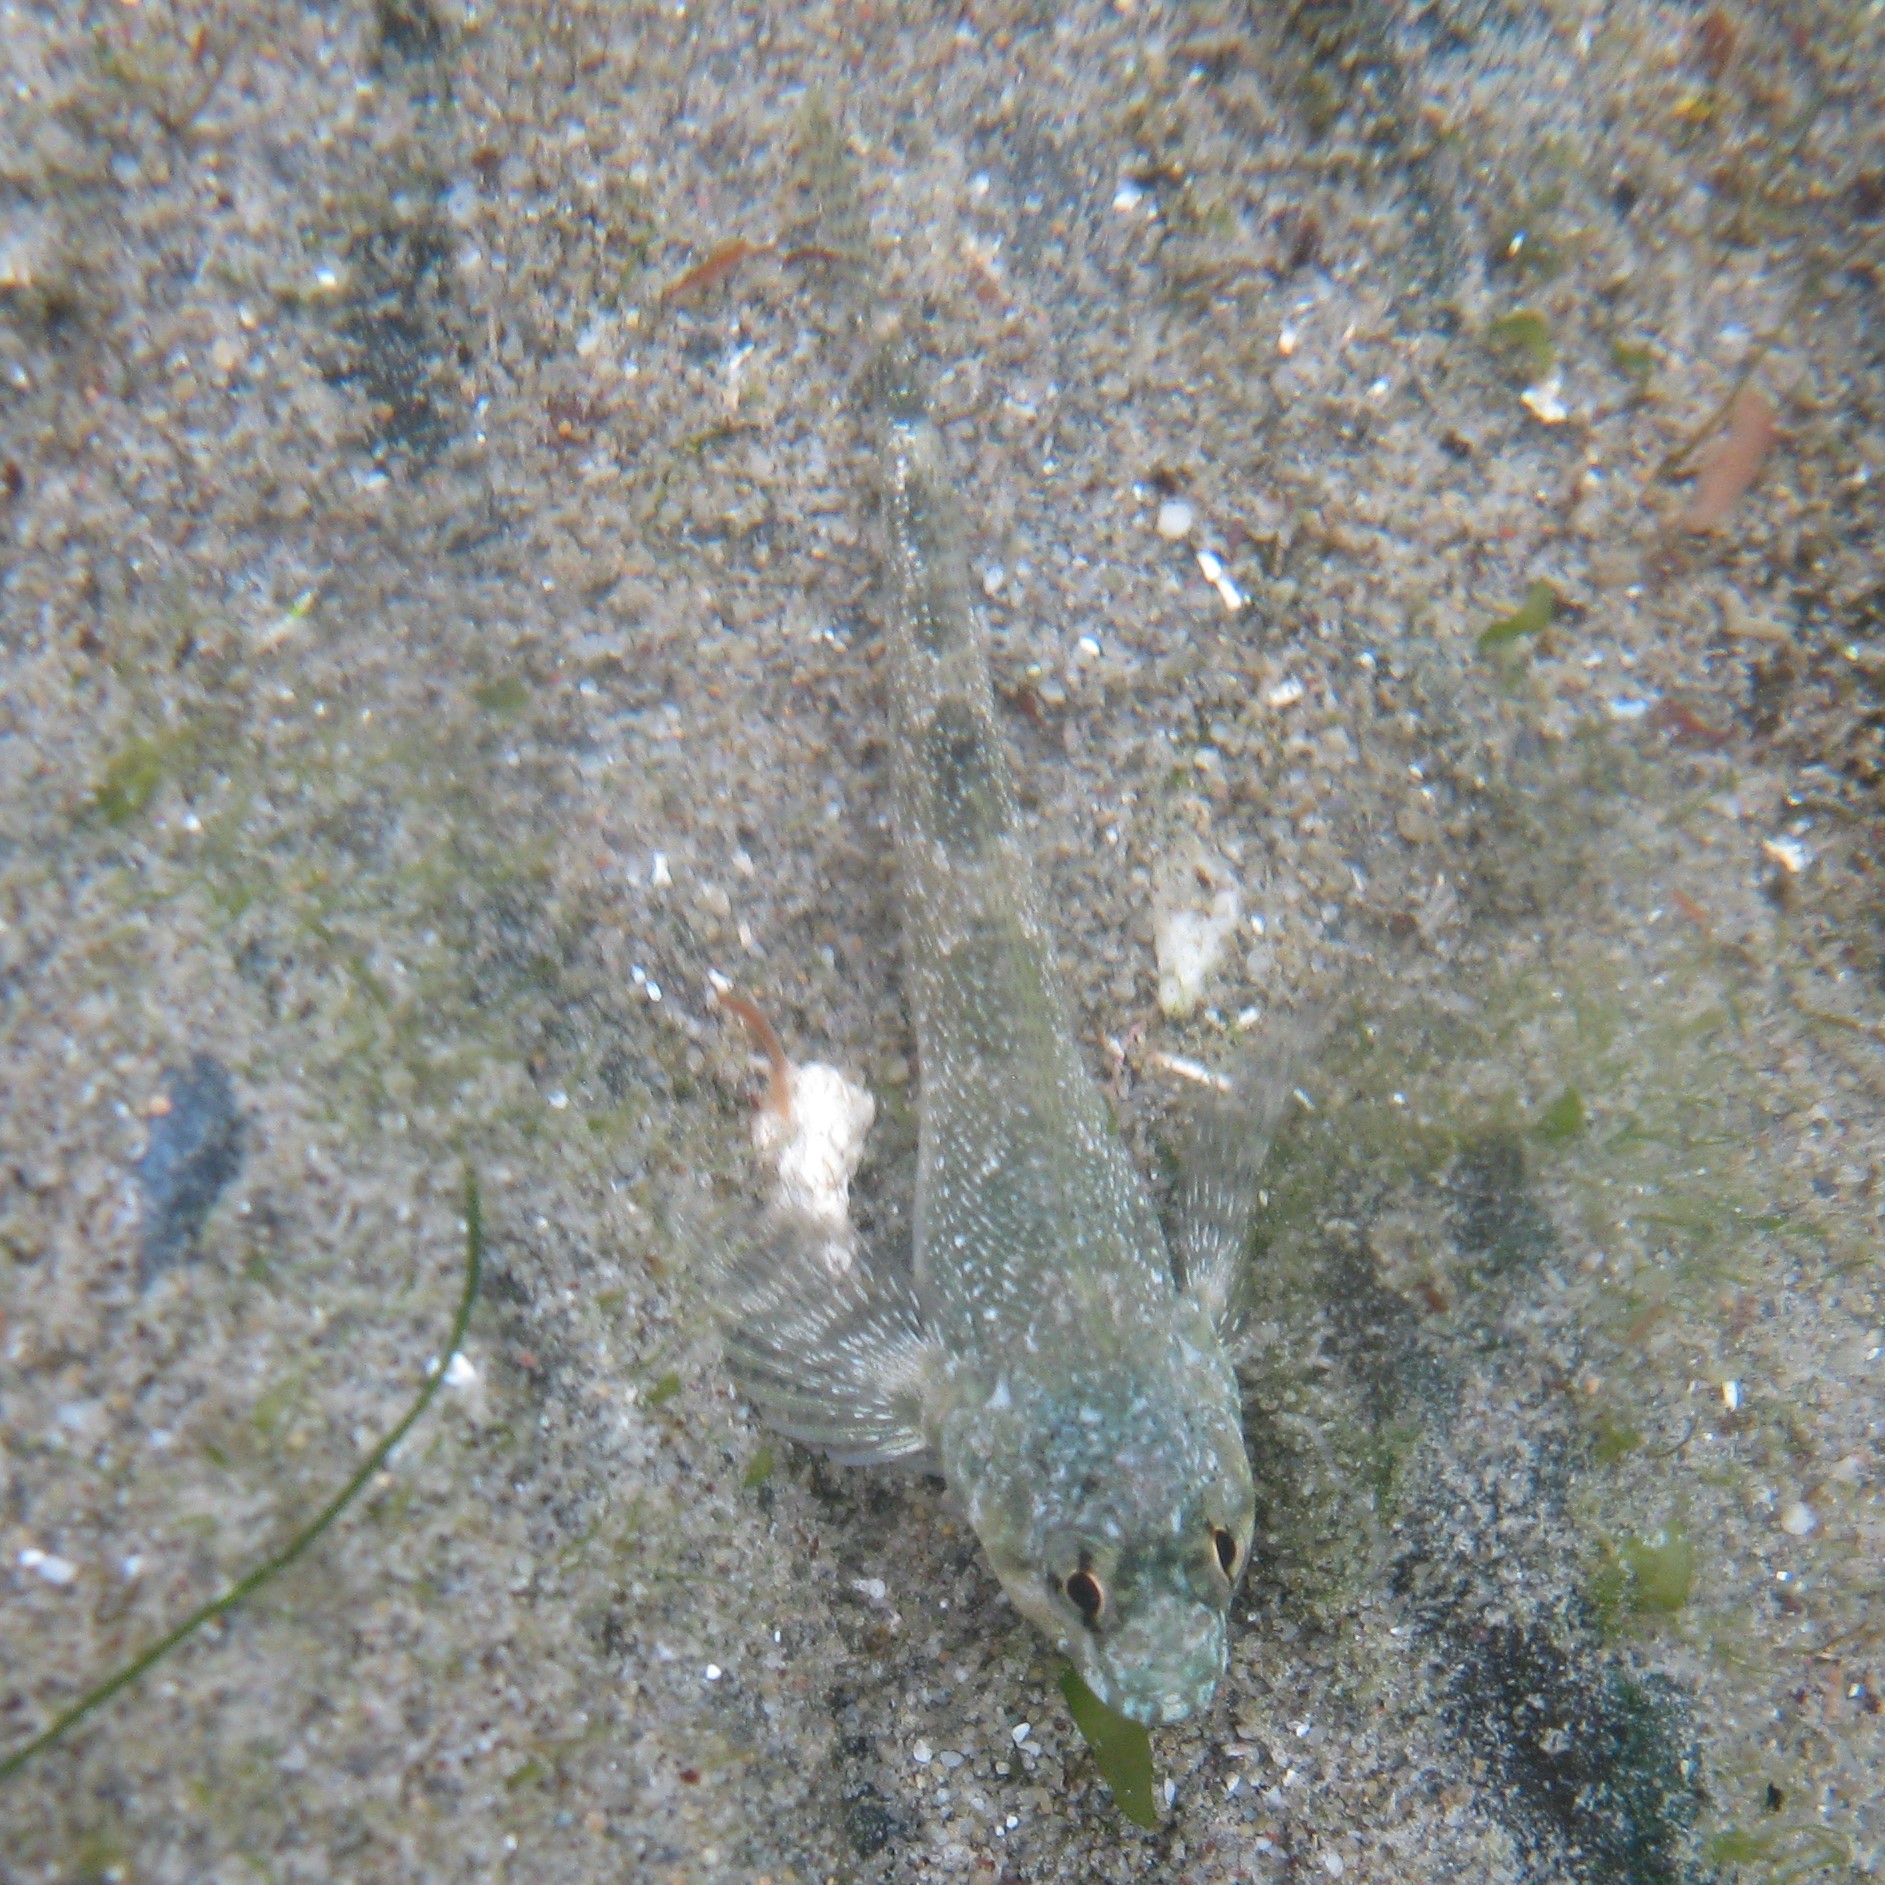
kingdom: Animalia
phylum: Chordata
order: Perciformes
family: Tripterygiidae
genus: Bellapiscis
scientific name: Bellapiscis medius
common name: Twister
